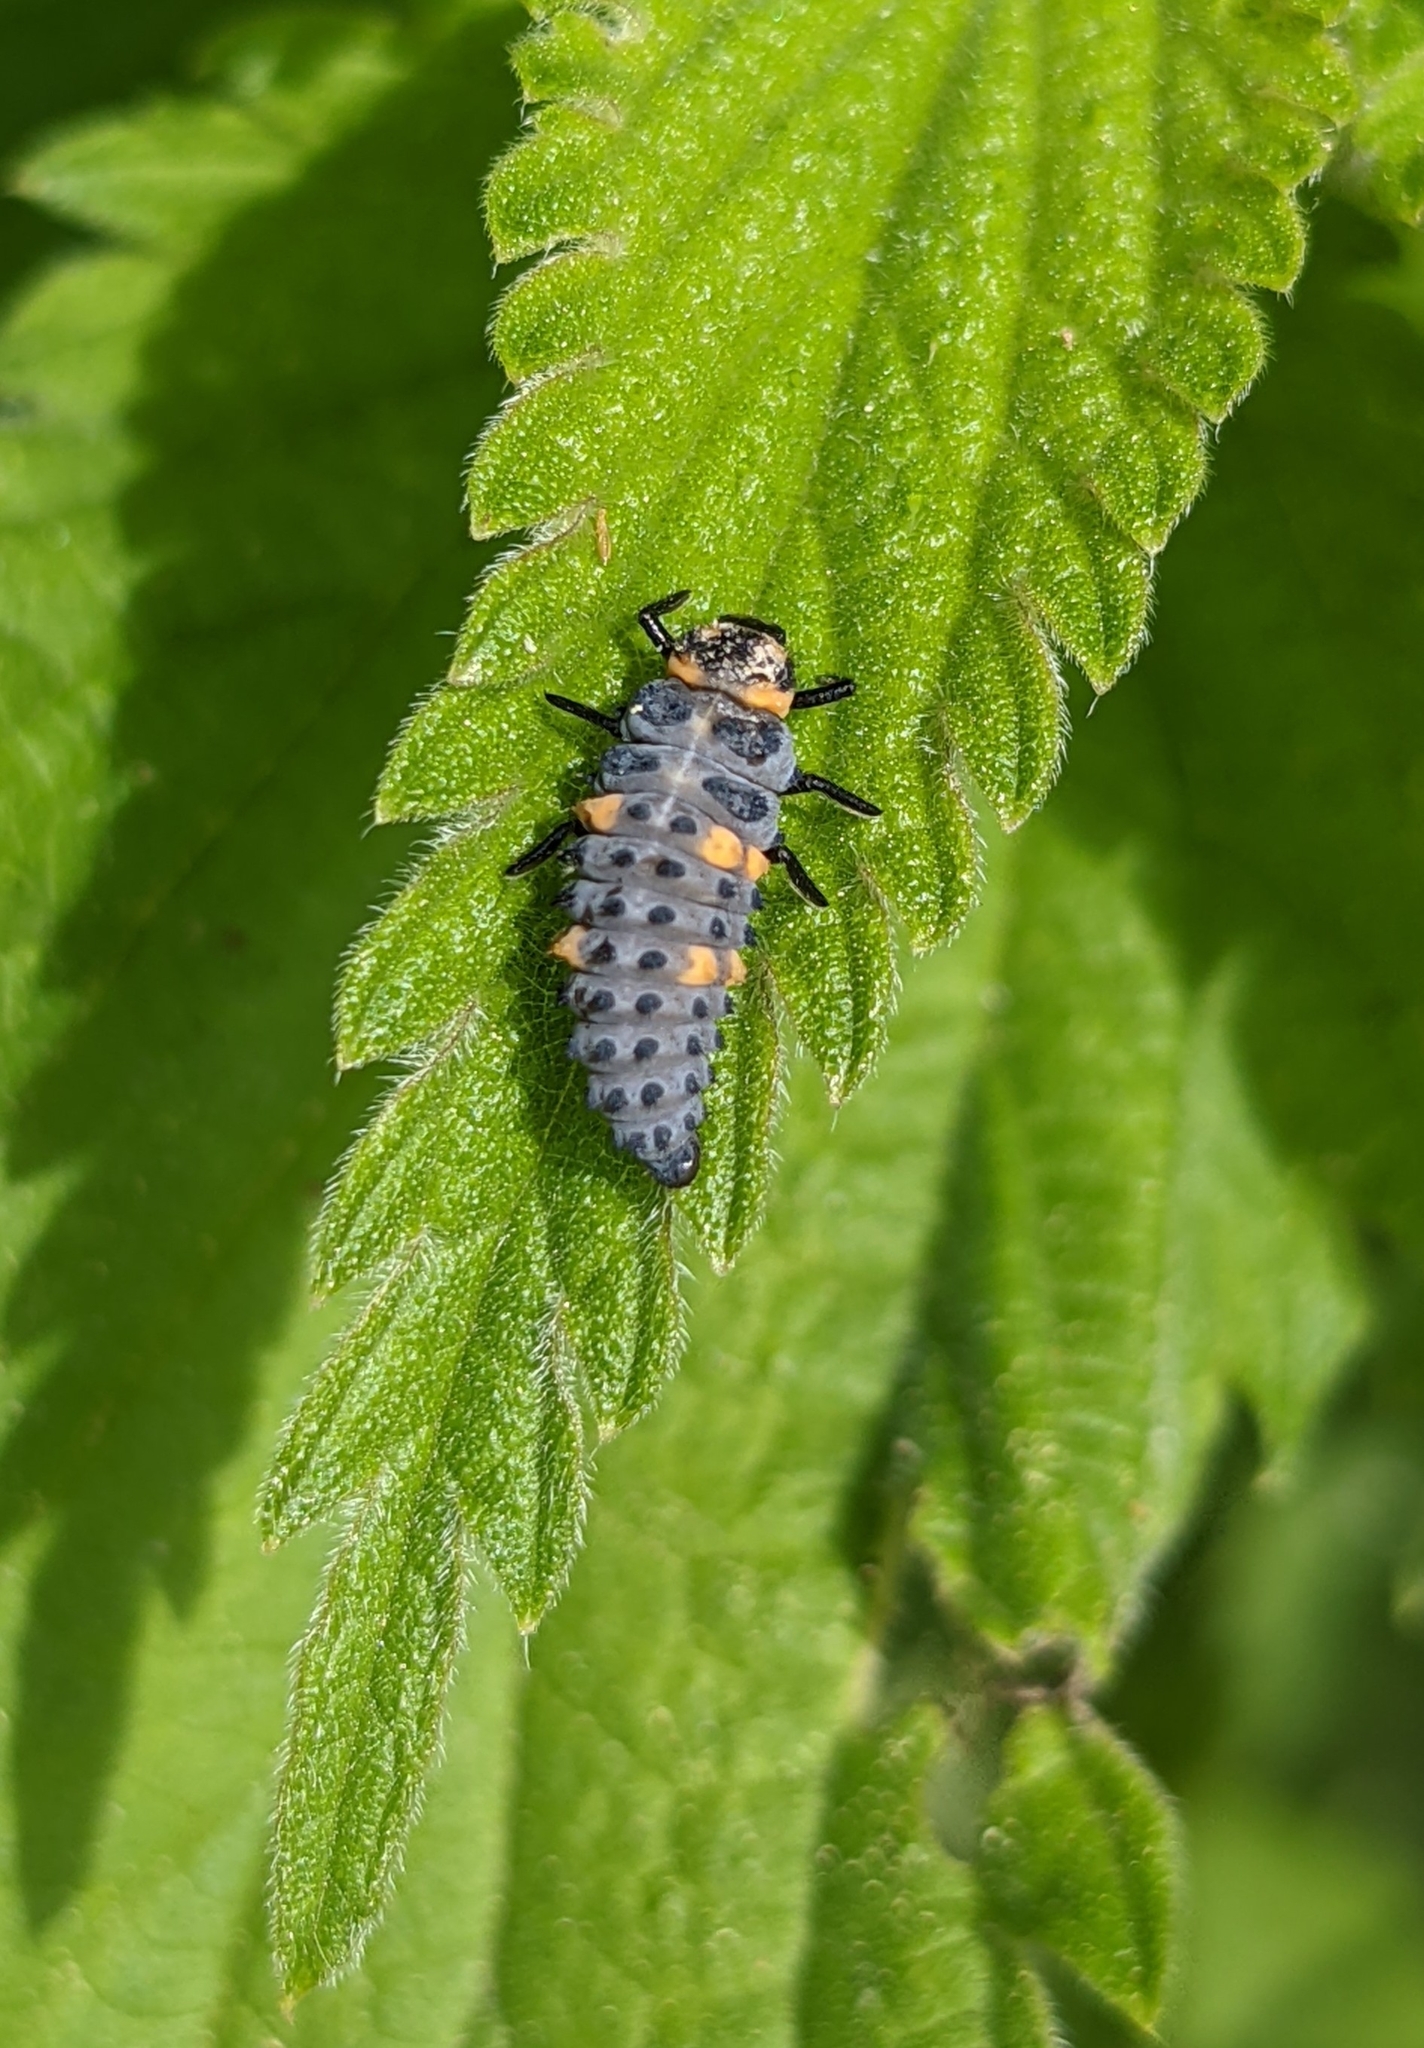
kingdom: Animalia
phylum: Arthropoda
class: Insecta
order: Coleoptera
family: Coccinellidae
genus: Coccinella
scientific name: Coccinella septempunctata
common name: Sevenspotted lady beetle
